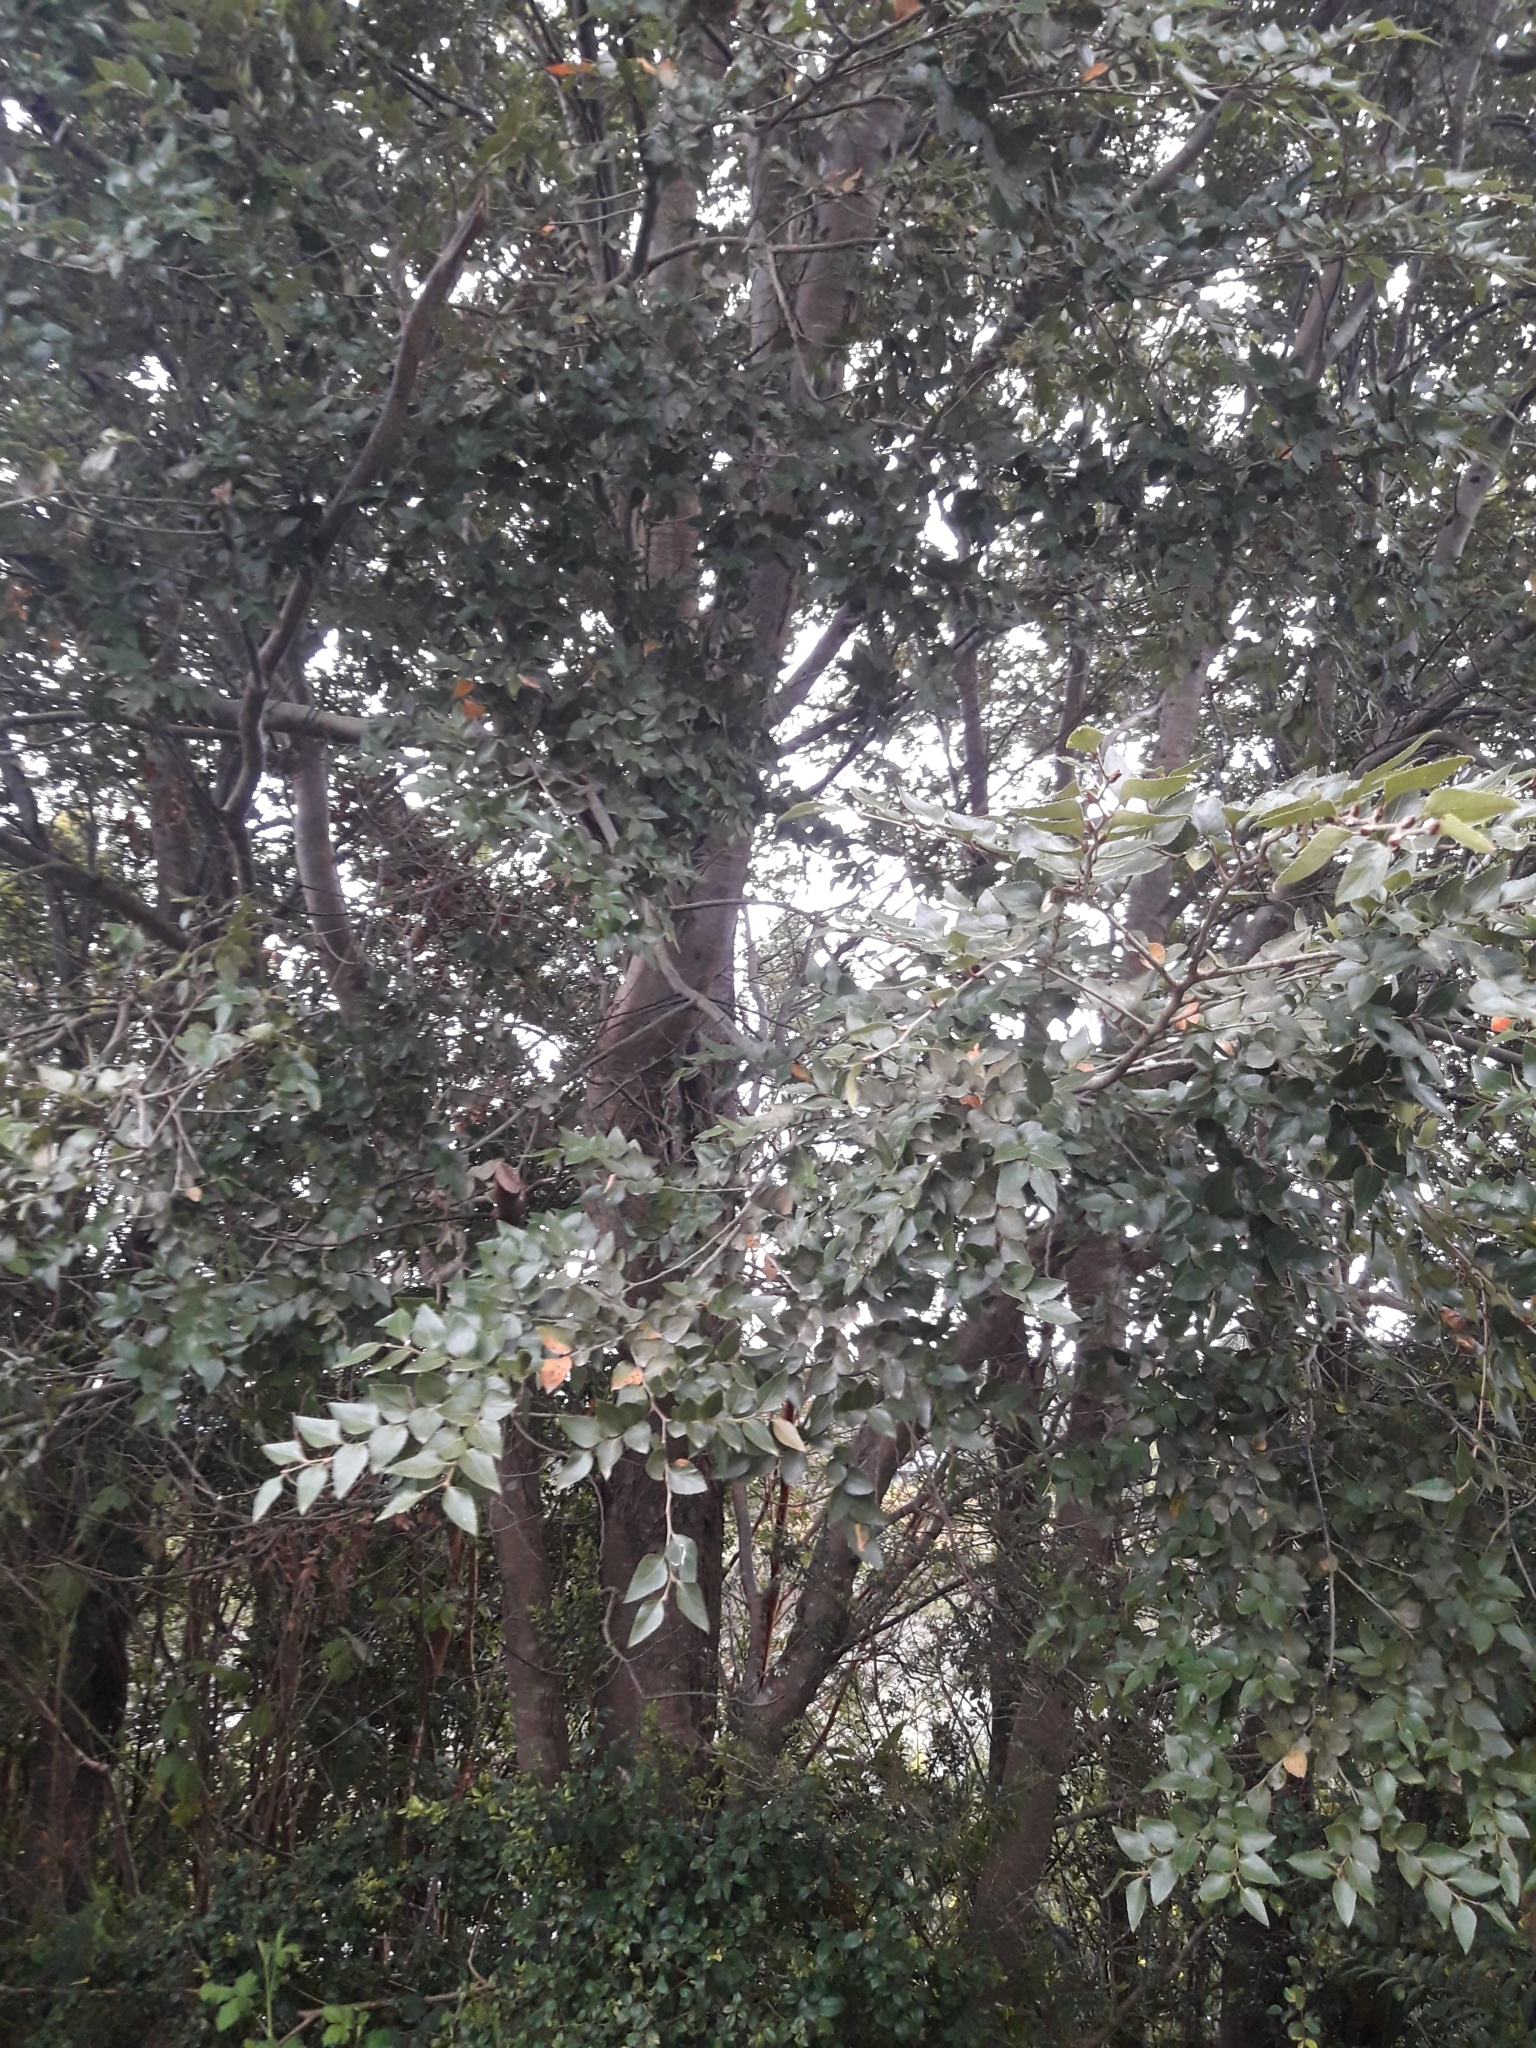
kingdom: Plantae
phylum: Tracheophyta
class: Magnoliopsida
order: Fagales
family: Nothofagaceae
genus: Nothofagus
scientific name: Nothofagus nitida
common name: Chiloé's coigue
